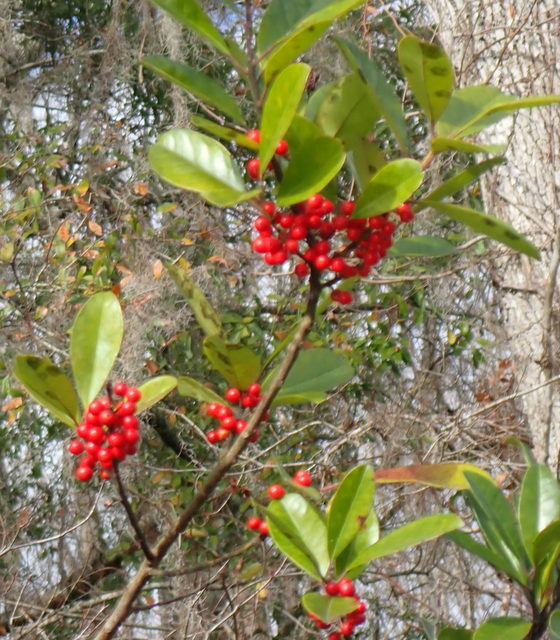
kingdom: Plantae
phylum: Tracheophyta
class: Magnoliopsida
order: Aquifoliales
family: Aquifoliaceae
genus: Ilex
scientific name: Ilex cassine
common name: Dahoon
